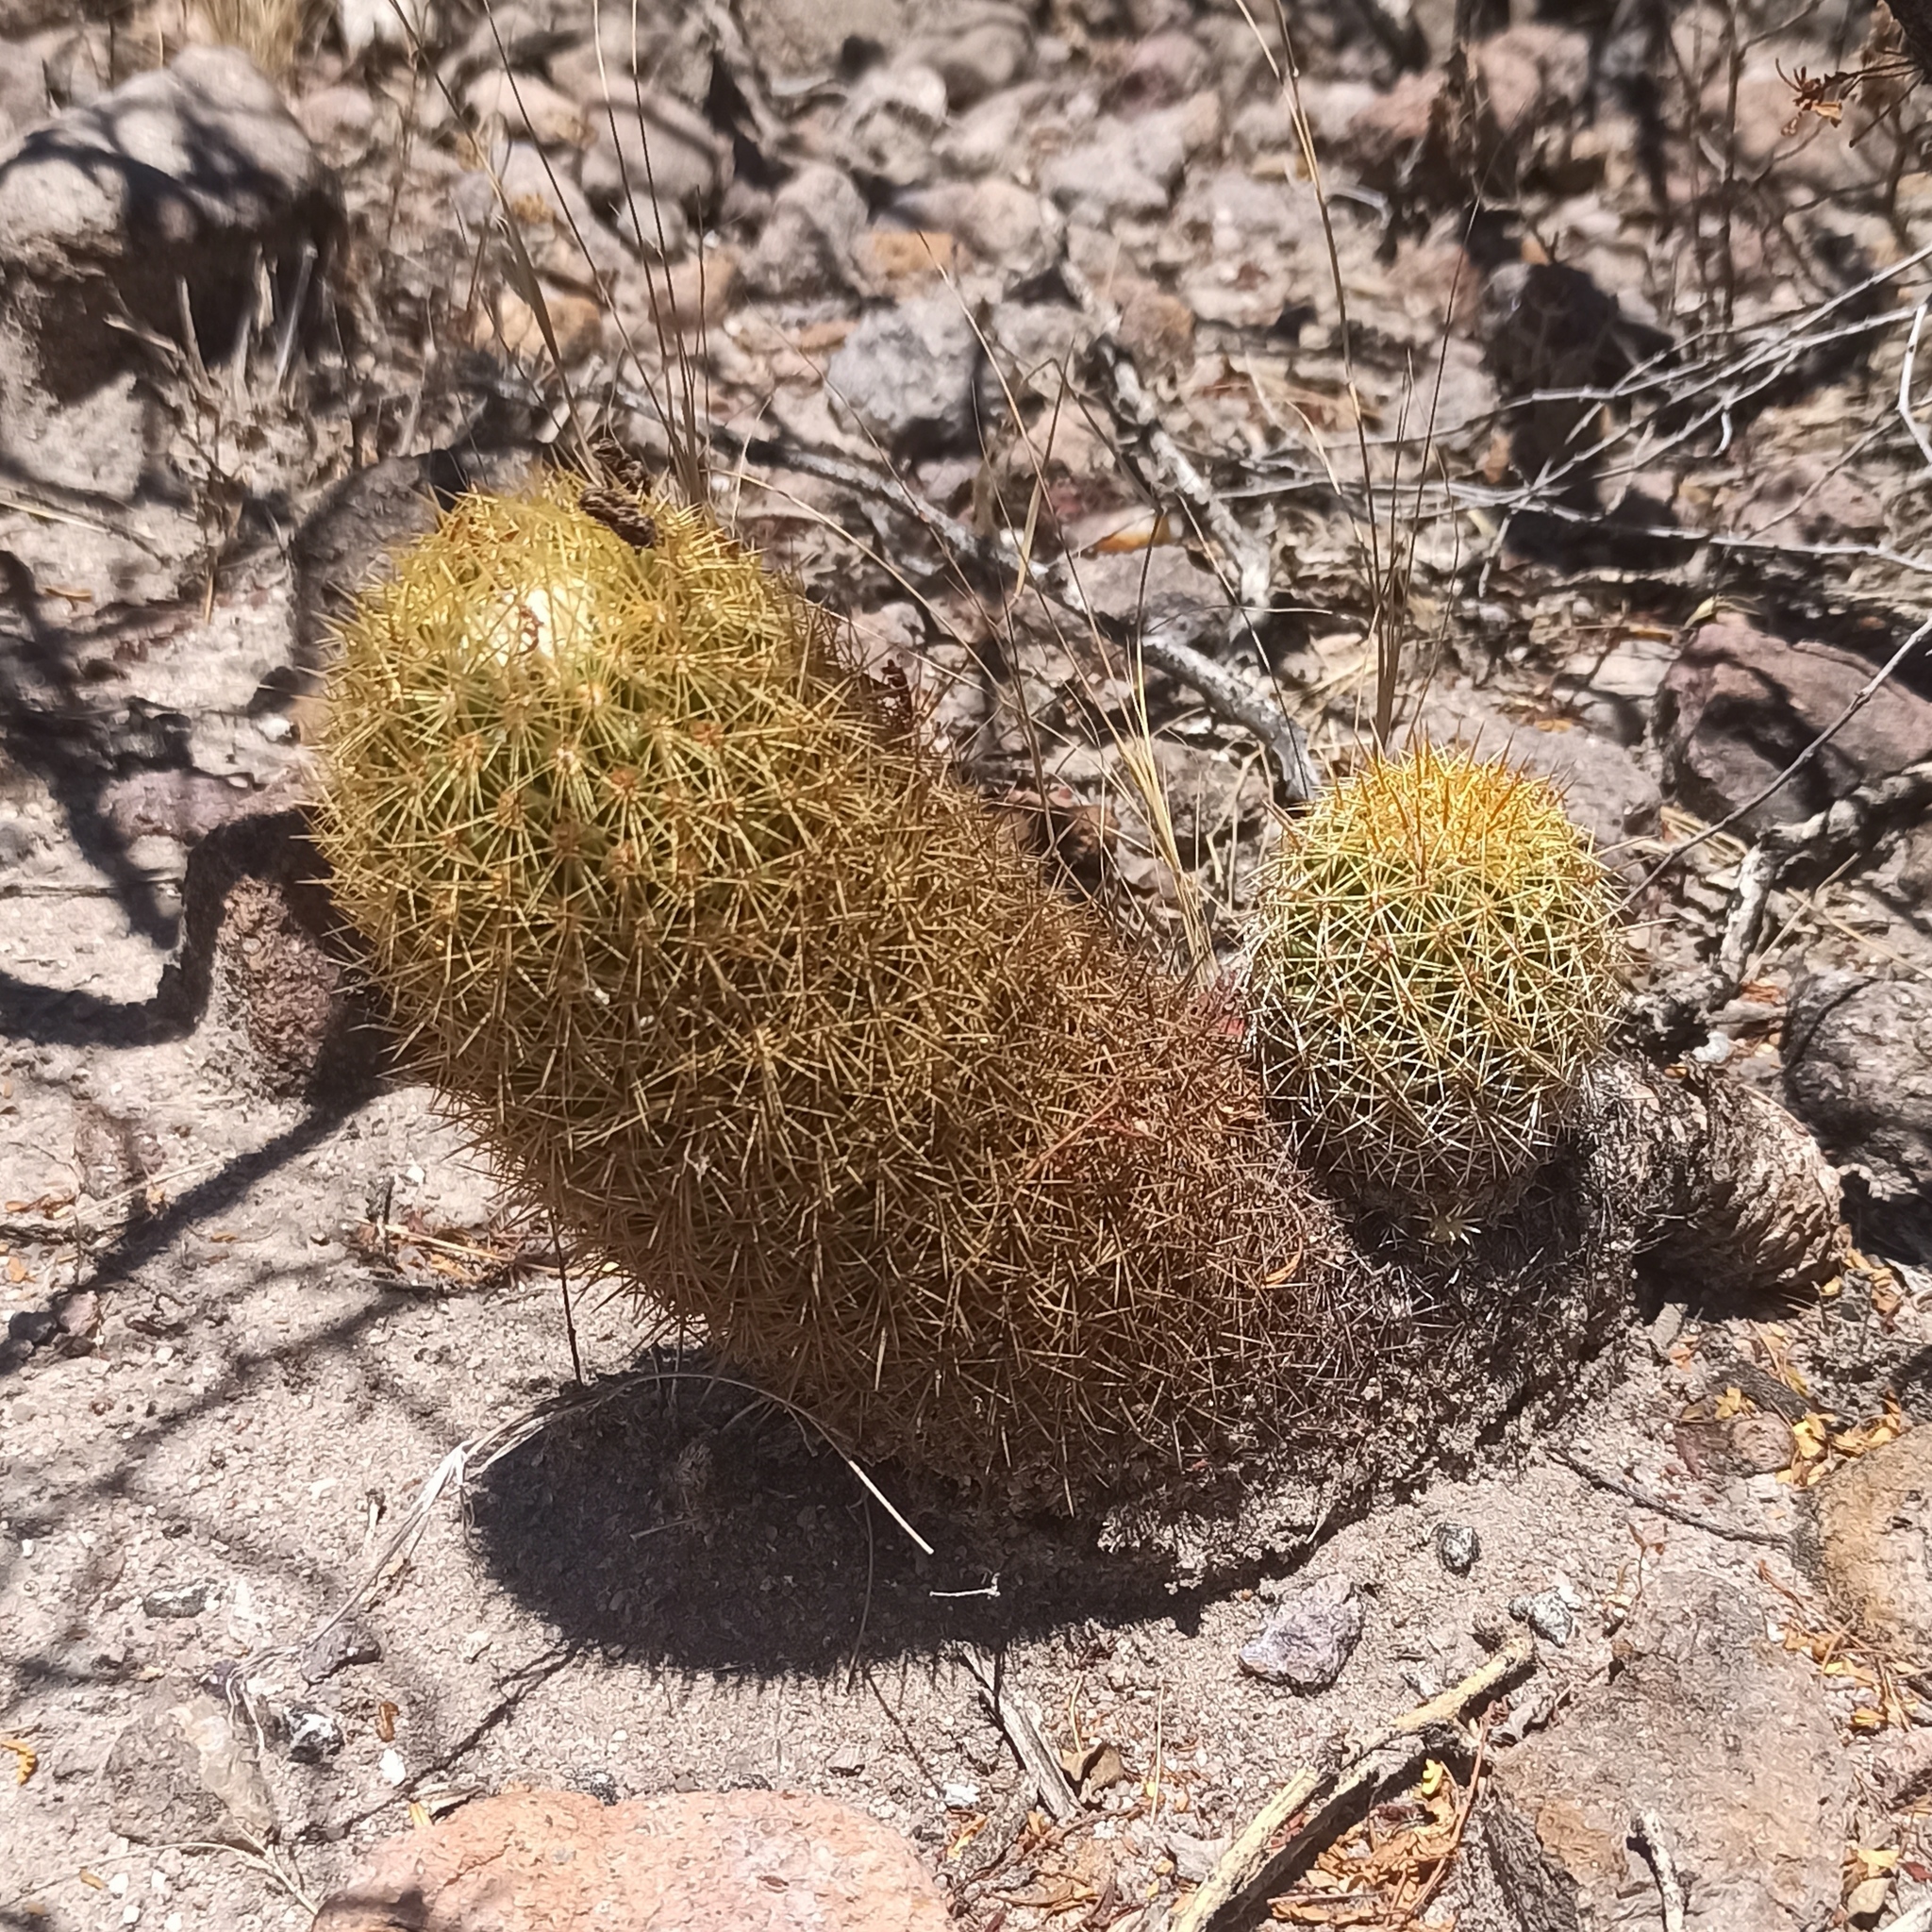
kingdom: Plantae
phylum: Tracheophyta
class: Magnoliopsida
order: Caryophyllales
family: Cactaceae
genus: Coryphantha
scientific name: Coryphantha erecta
